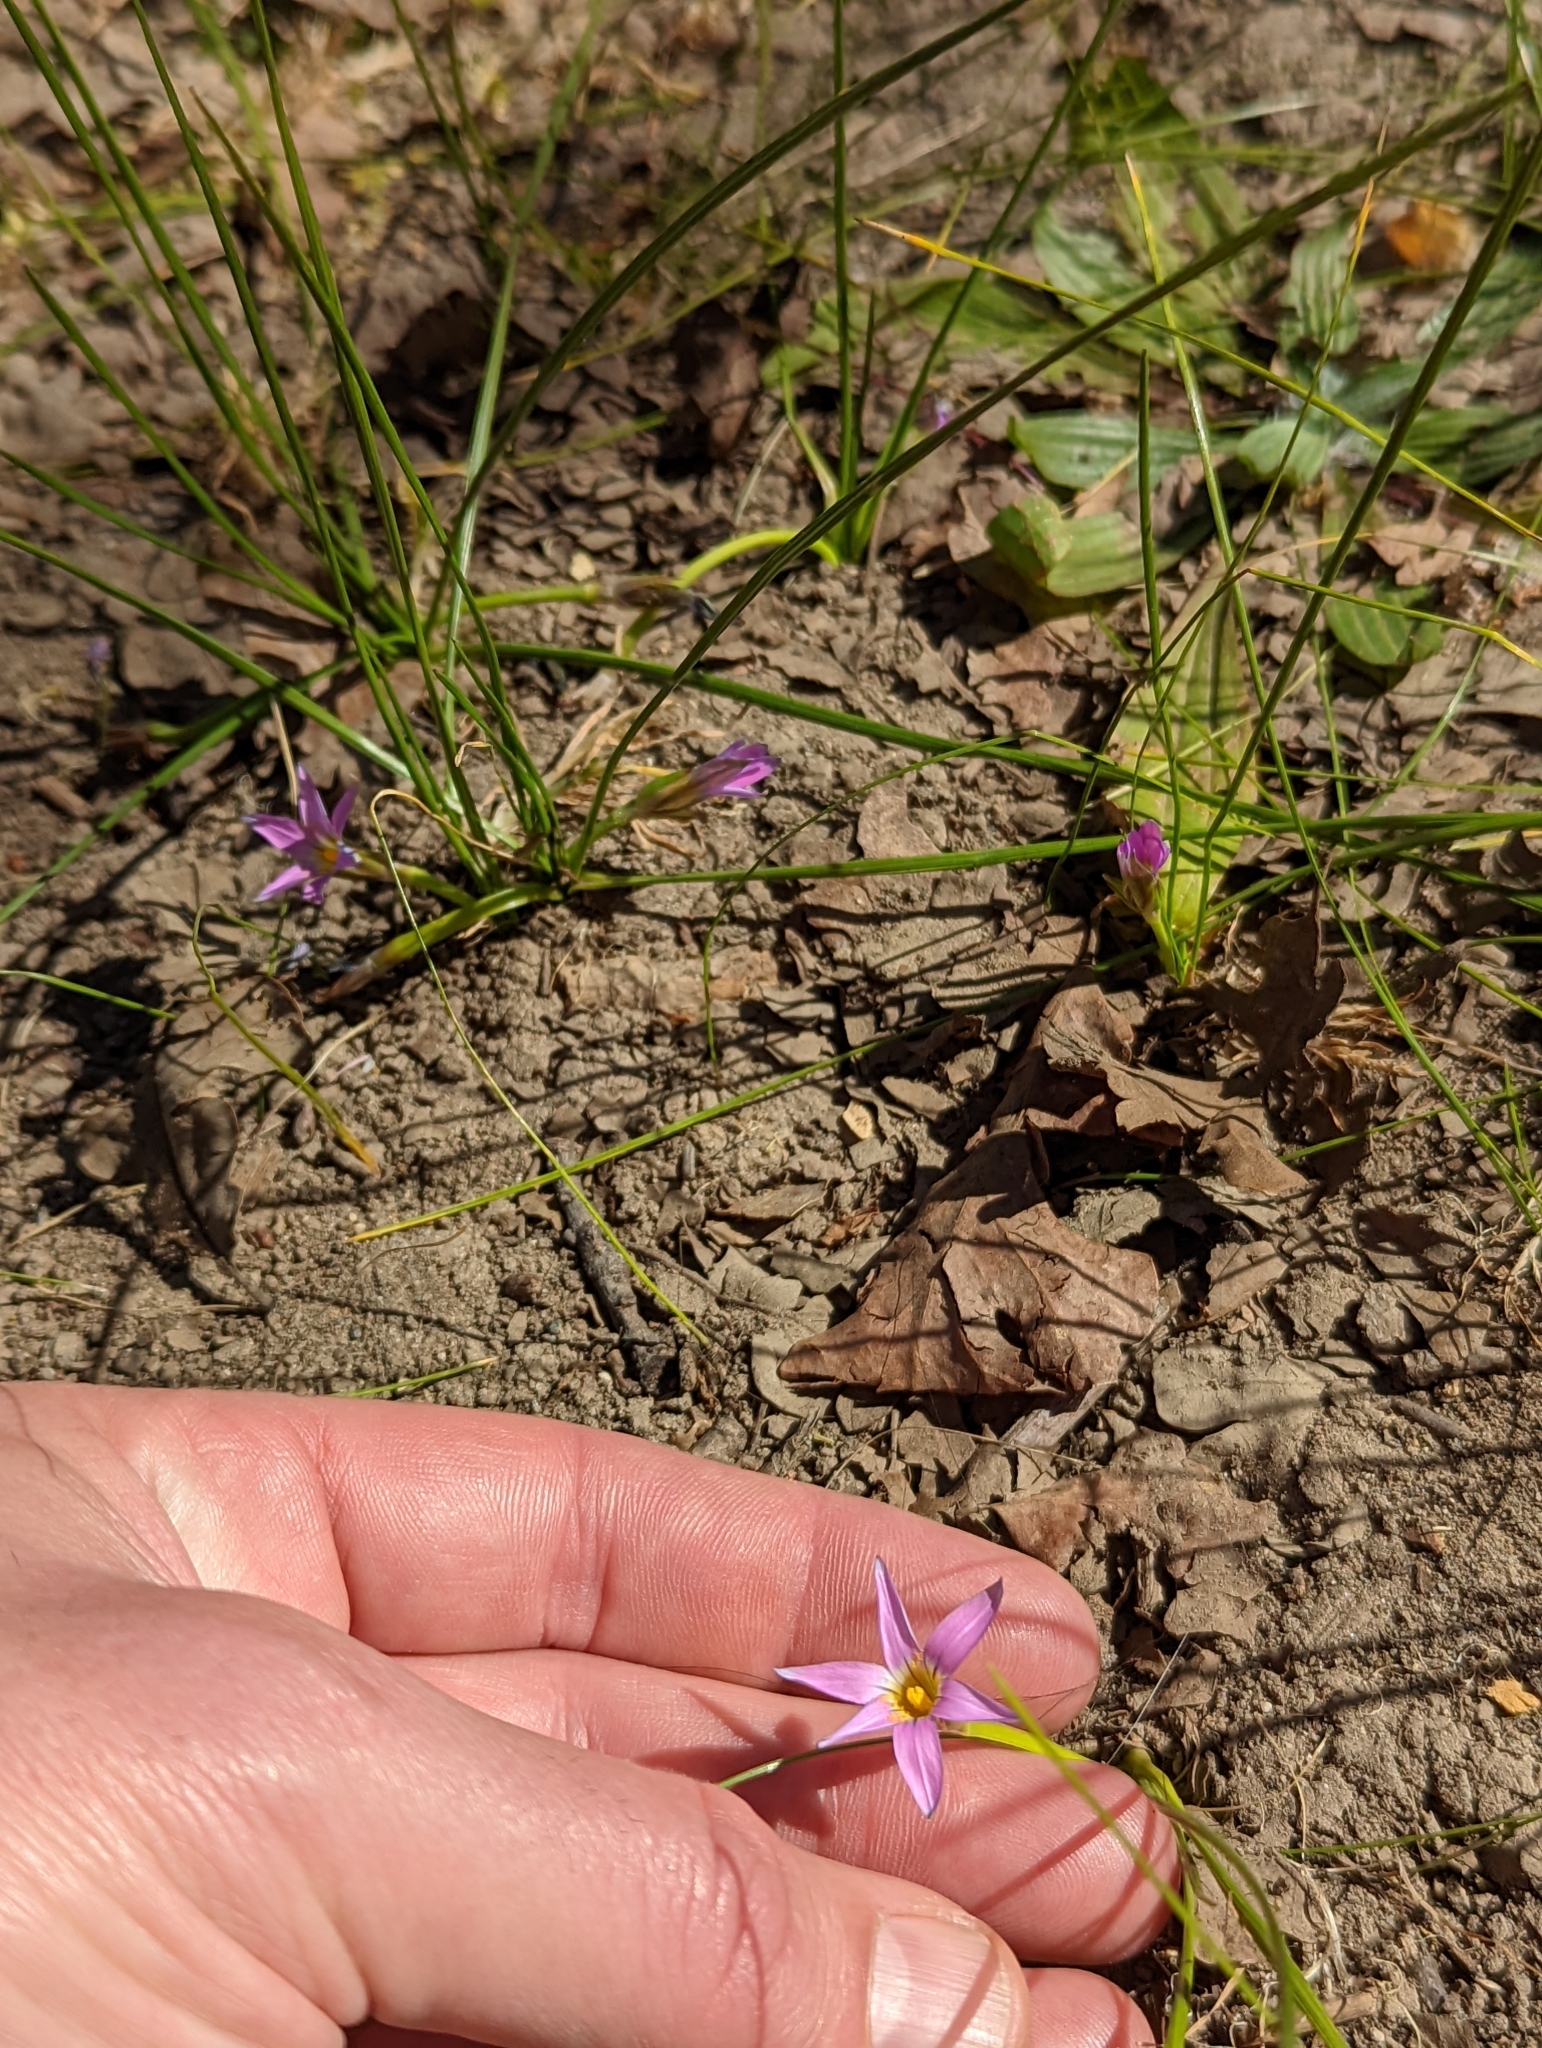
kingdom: Plantae
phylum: Tracheophyta
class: Liliopsida
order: Asparagales
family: Iridaceae
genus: Romulea
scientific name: Romulea rosea
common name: Oniongrass
